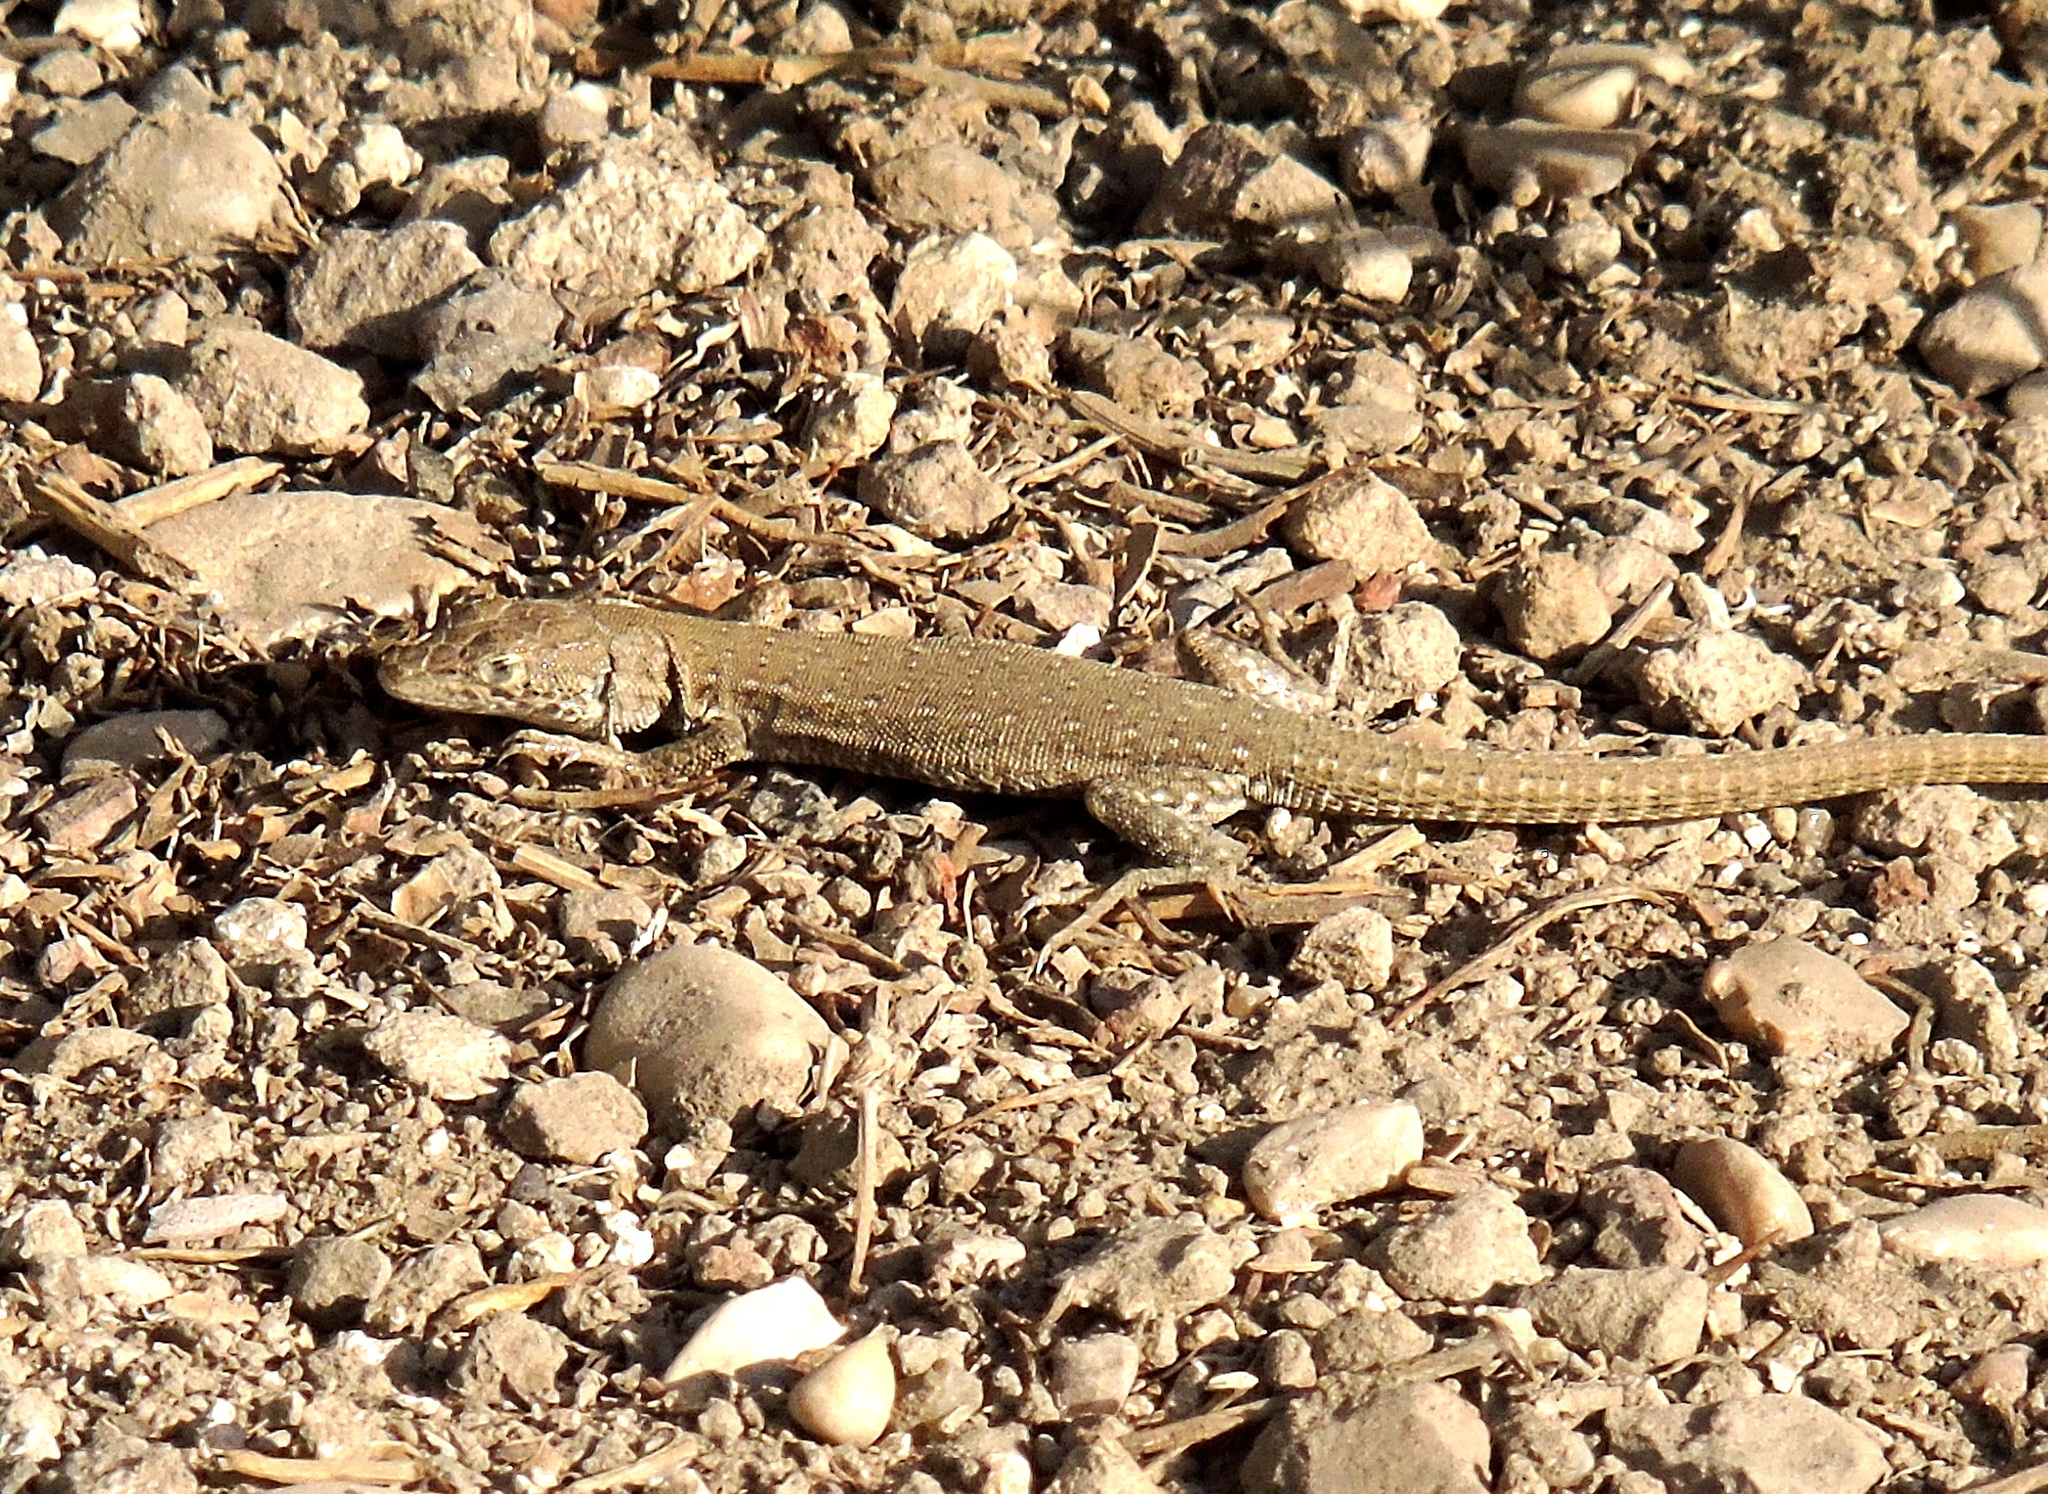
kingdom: Animalia
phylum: Chordata
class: Squamata
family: Lacertidae
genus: Mesalina
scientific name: Mesalina guttulata
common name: Desert lacerta
